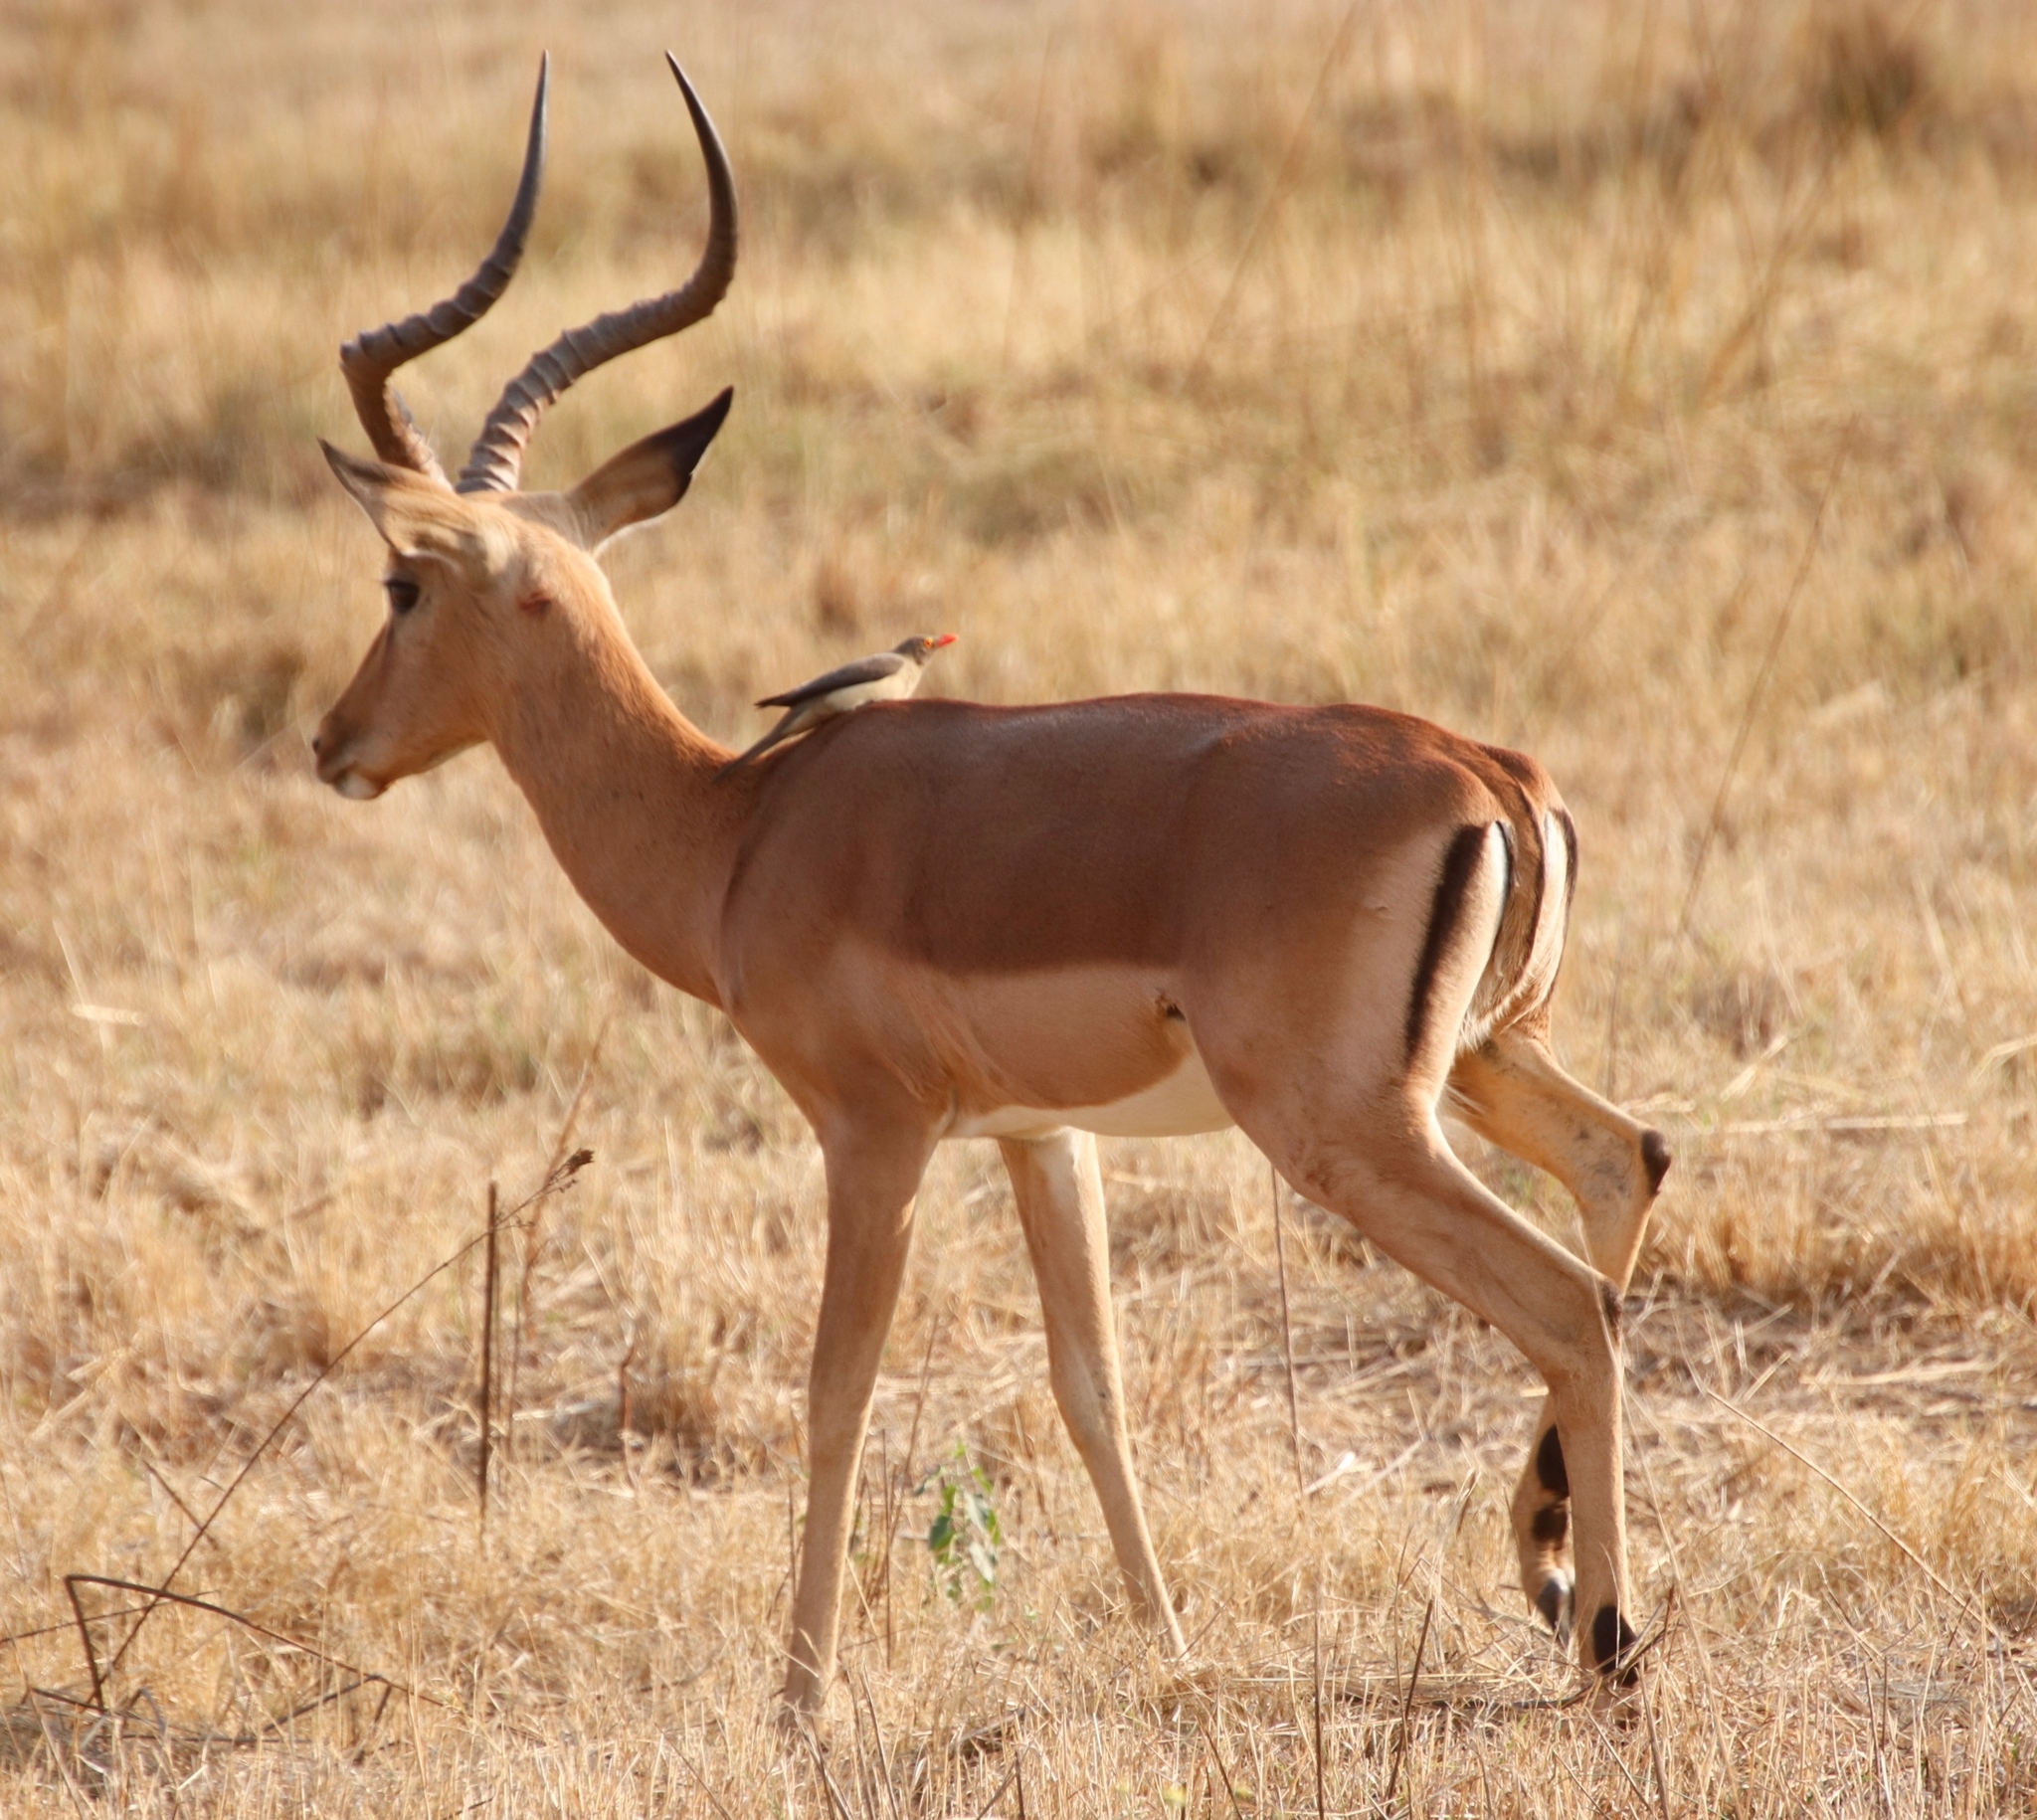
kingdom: Animalia
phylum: Chordata
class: Aves
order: Passeriformes
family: Buphagidae
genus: Buphagus
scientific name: Buphagus erythrorhynchus
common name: Red-billed oxpecker
